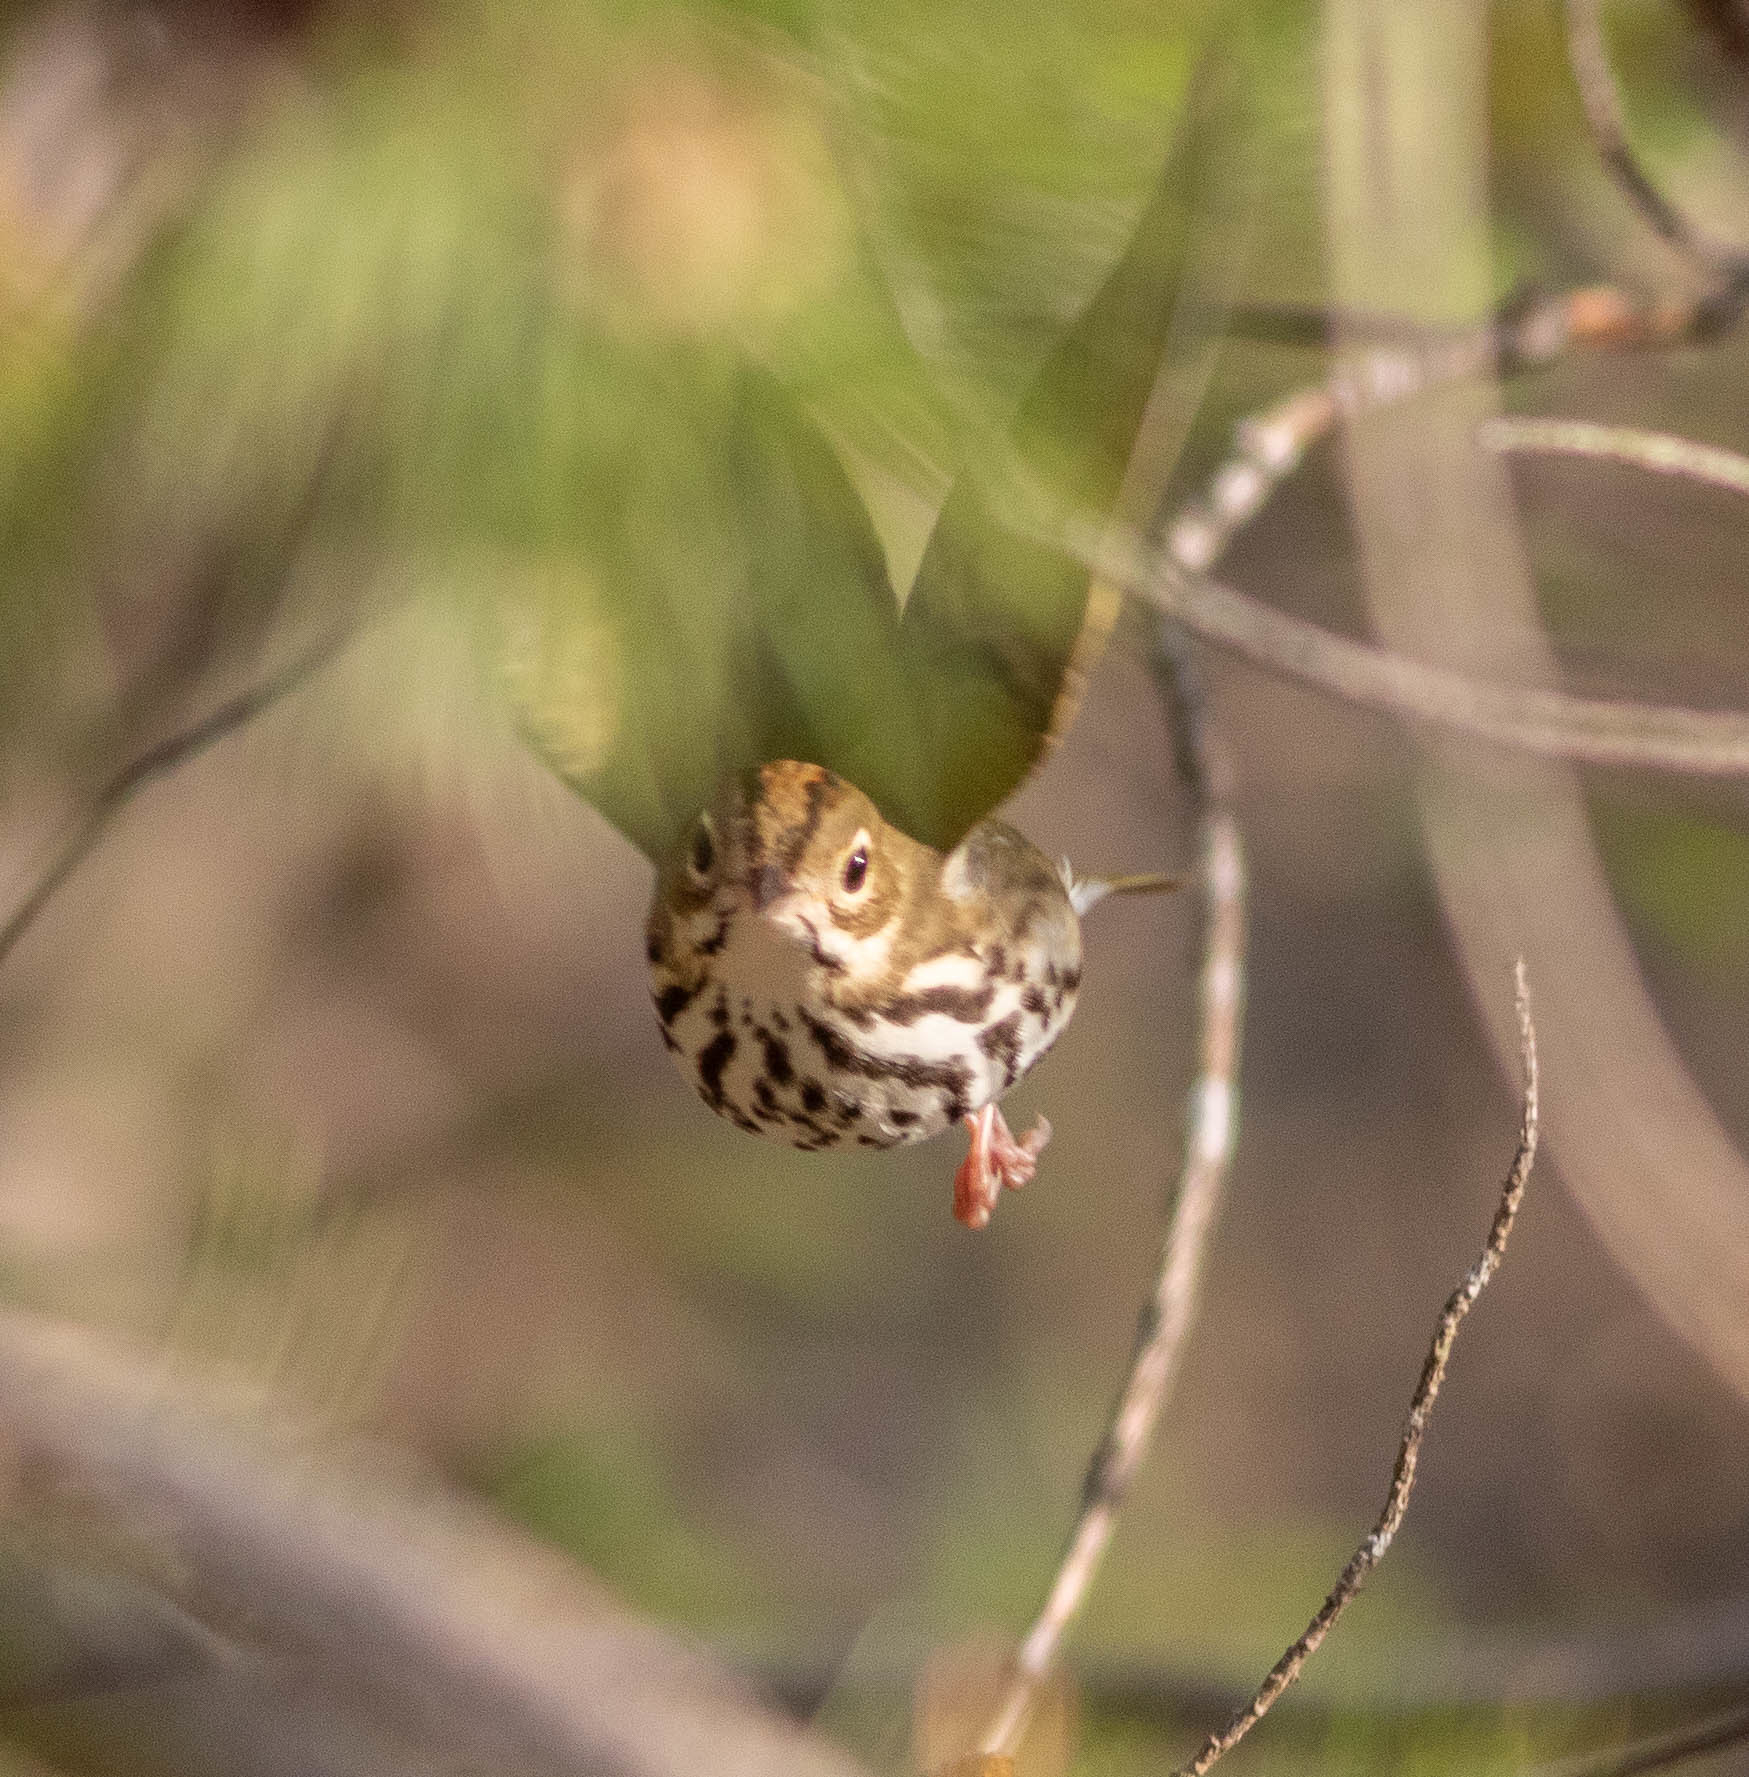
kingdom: Animalia
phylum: Chordata
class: Aves
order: Passeriformes
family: Parulidae
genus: Seiurus
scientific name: Seiurus aurocapilla
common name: Ovenbird
